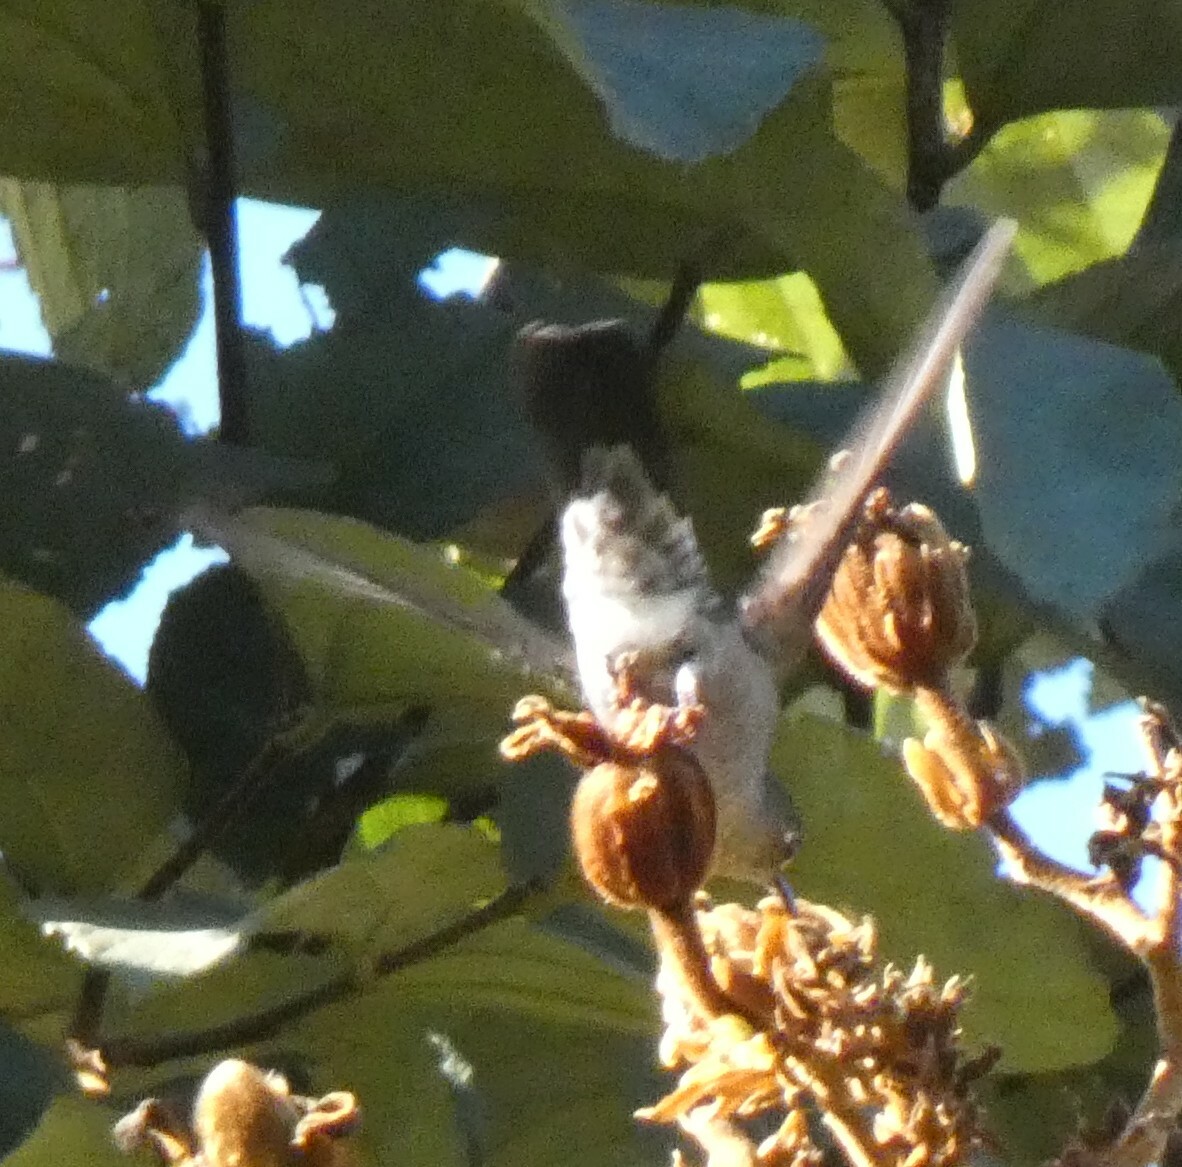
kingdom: Animalia
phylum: Chordata
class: Aves
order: Apodiformes
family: Trochilidae
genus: Eupetomena
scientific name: Eupetomena cirrochloris
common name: Sombre hummingbird
